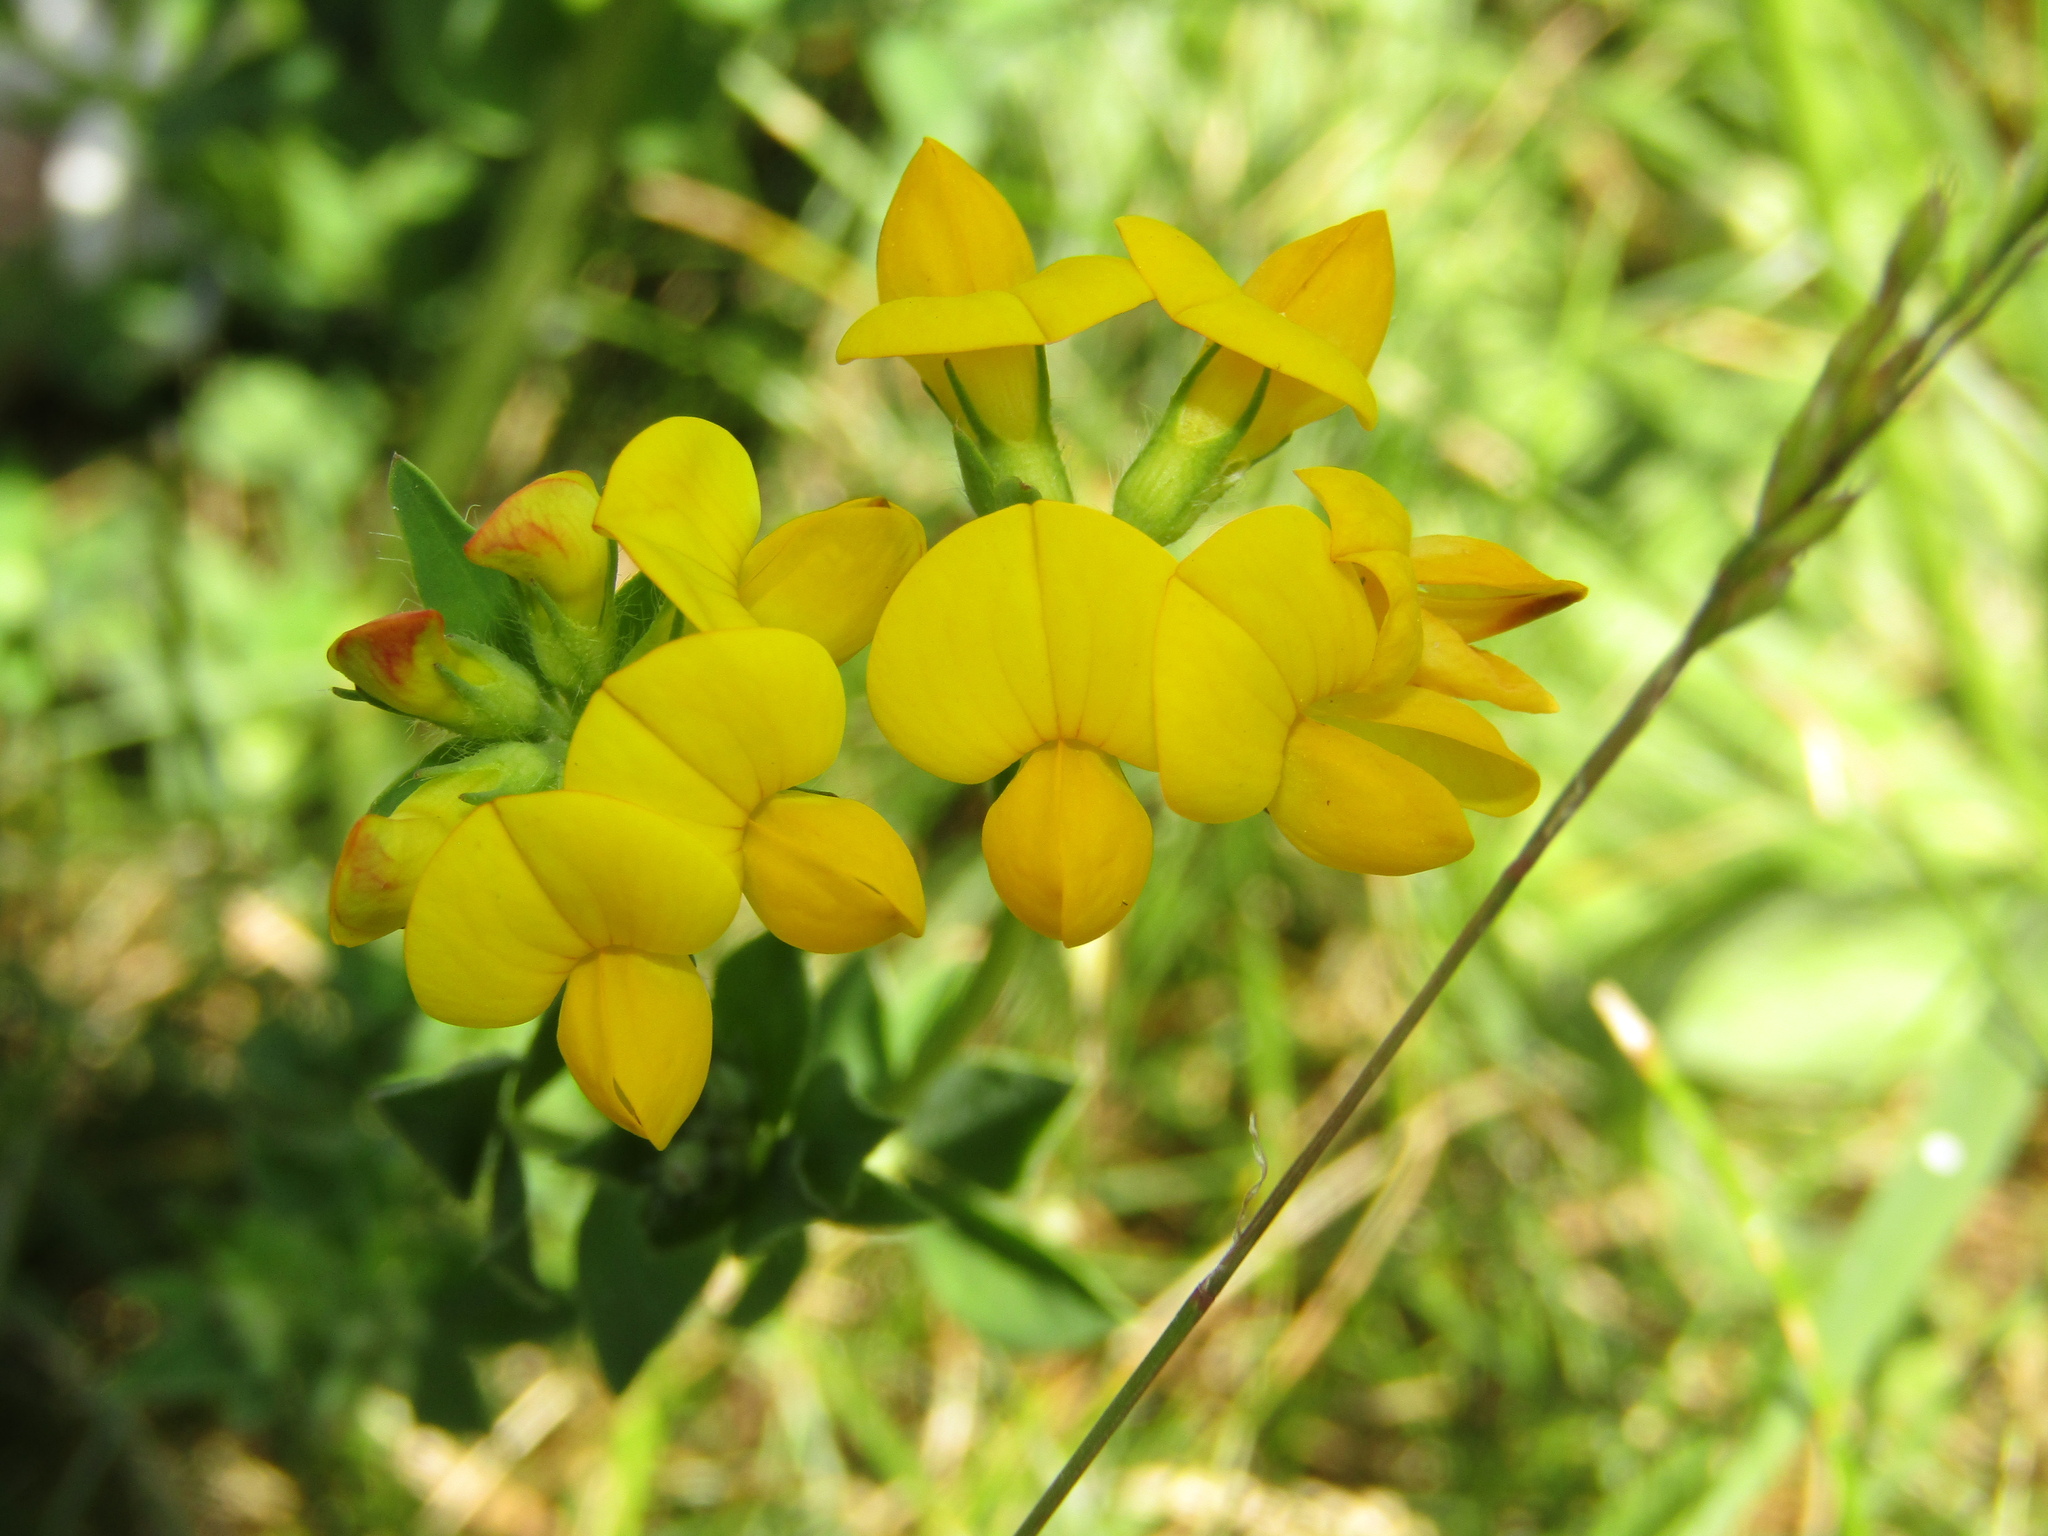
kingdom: Plantae
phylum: Tracheophyta
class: Magnoliopsida
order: Fabales
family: Fabaceae
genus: Lotus
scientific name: Lotus corniculatus
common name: Common bird's-foot-trefoil
